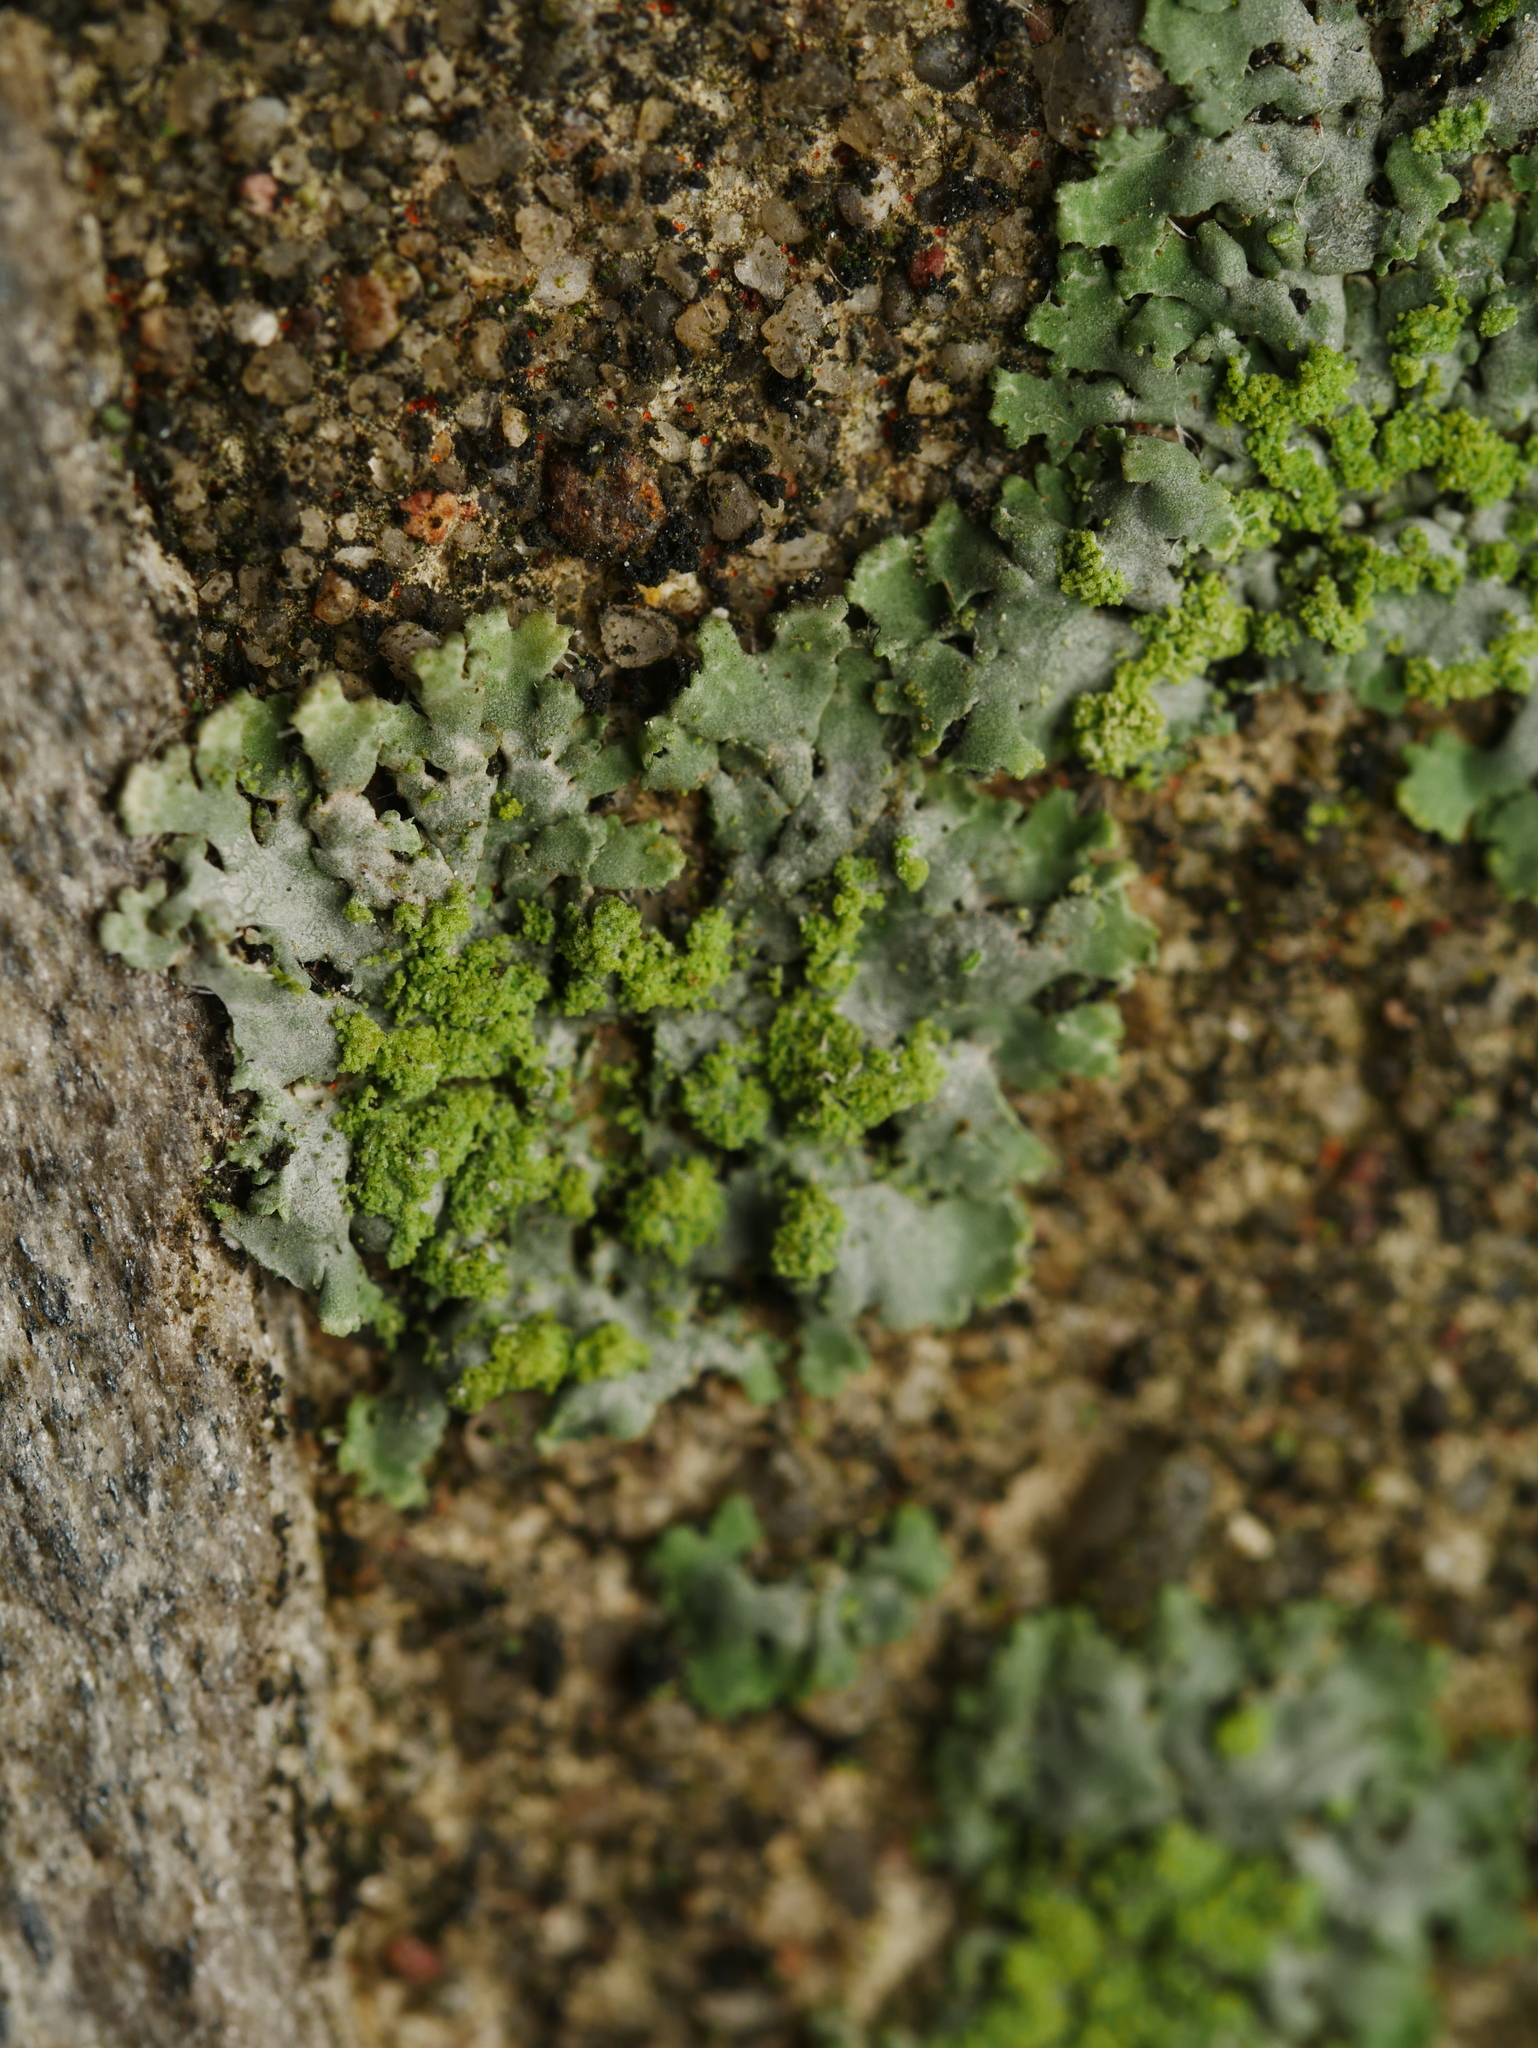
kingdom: Fungi
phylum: Ascomycota
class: Lecanoromycetes
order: Caliciales
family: Physciaceae
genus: Phaeophyscia
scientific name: Phaeophyscia orbicularis
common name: Mealy shadow lichen
